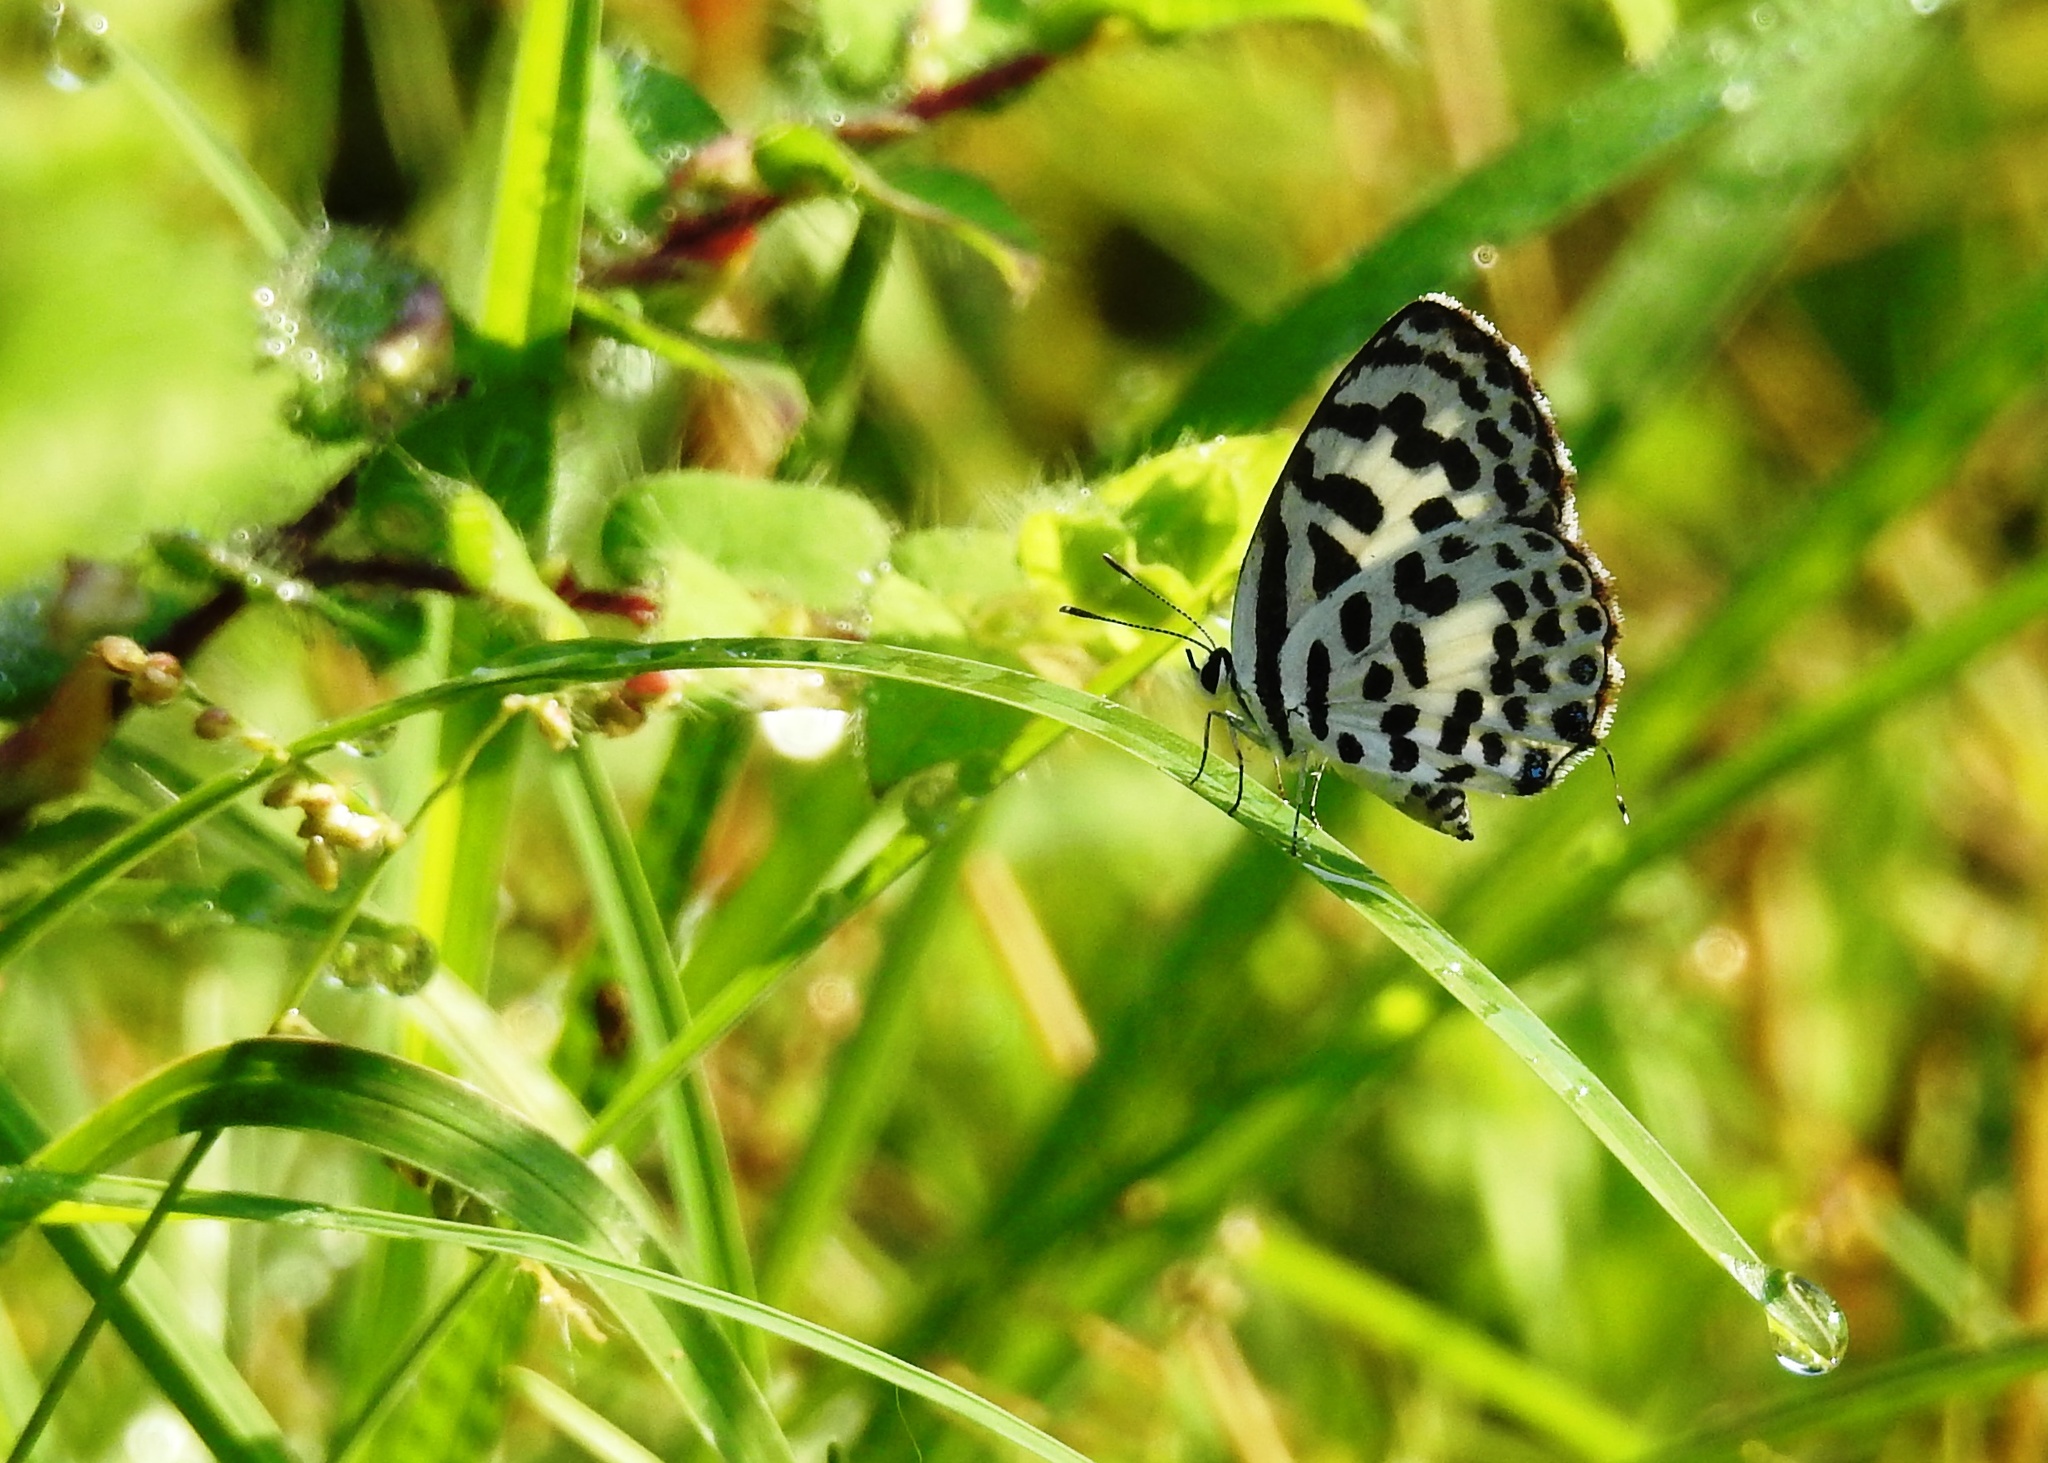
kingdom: Animalia
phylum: Arthropoda
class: Insecta
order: Lepidoptera
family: Lycaenidae
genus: Castalius
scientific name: Castalius rosimon
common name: Common pierrot
